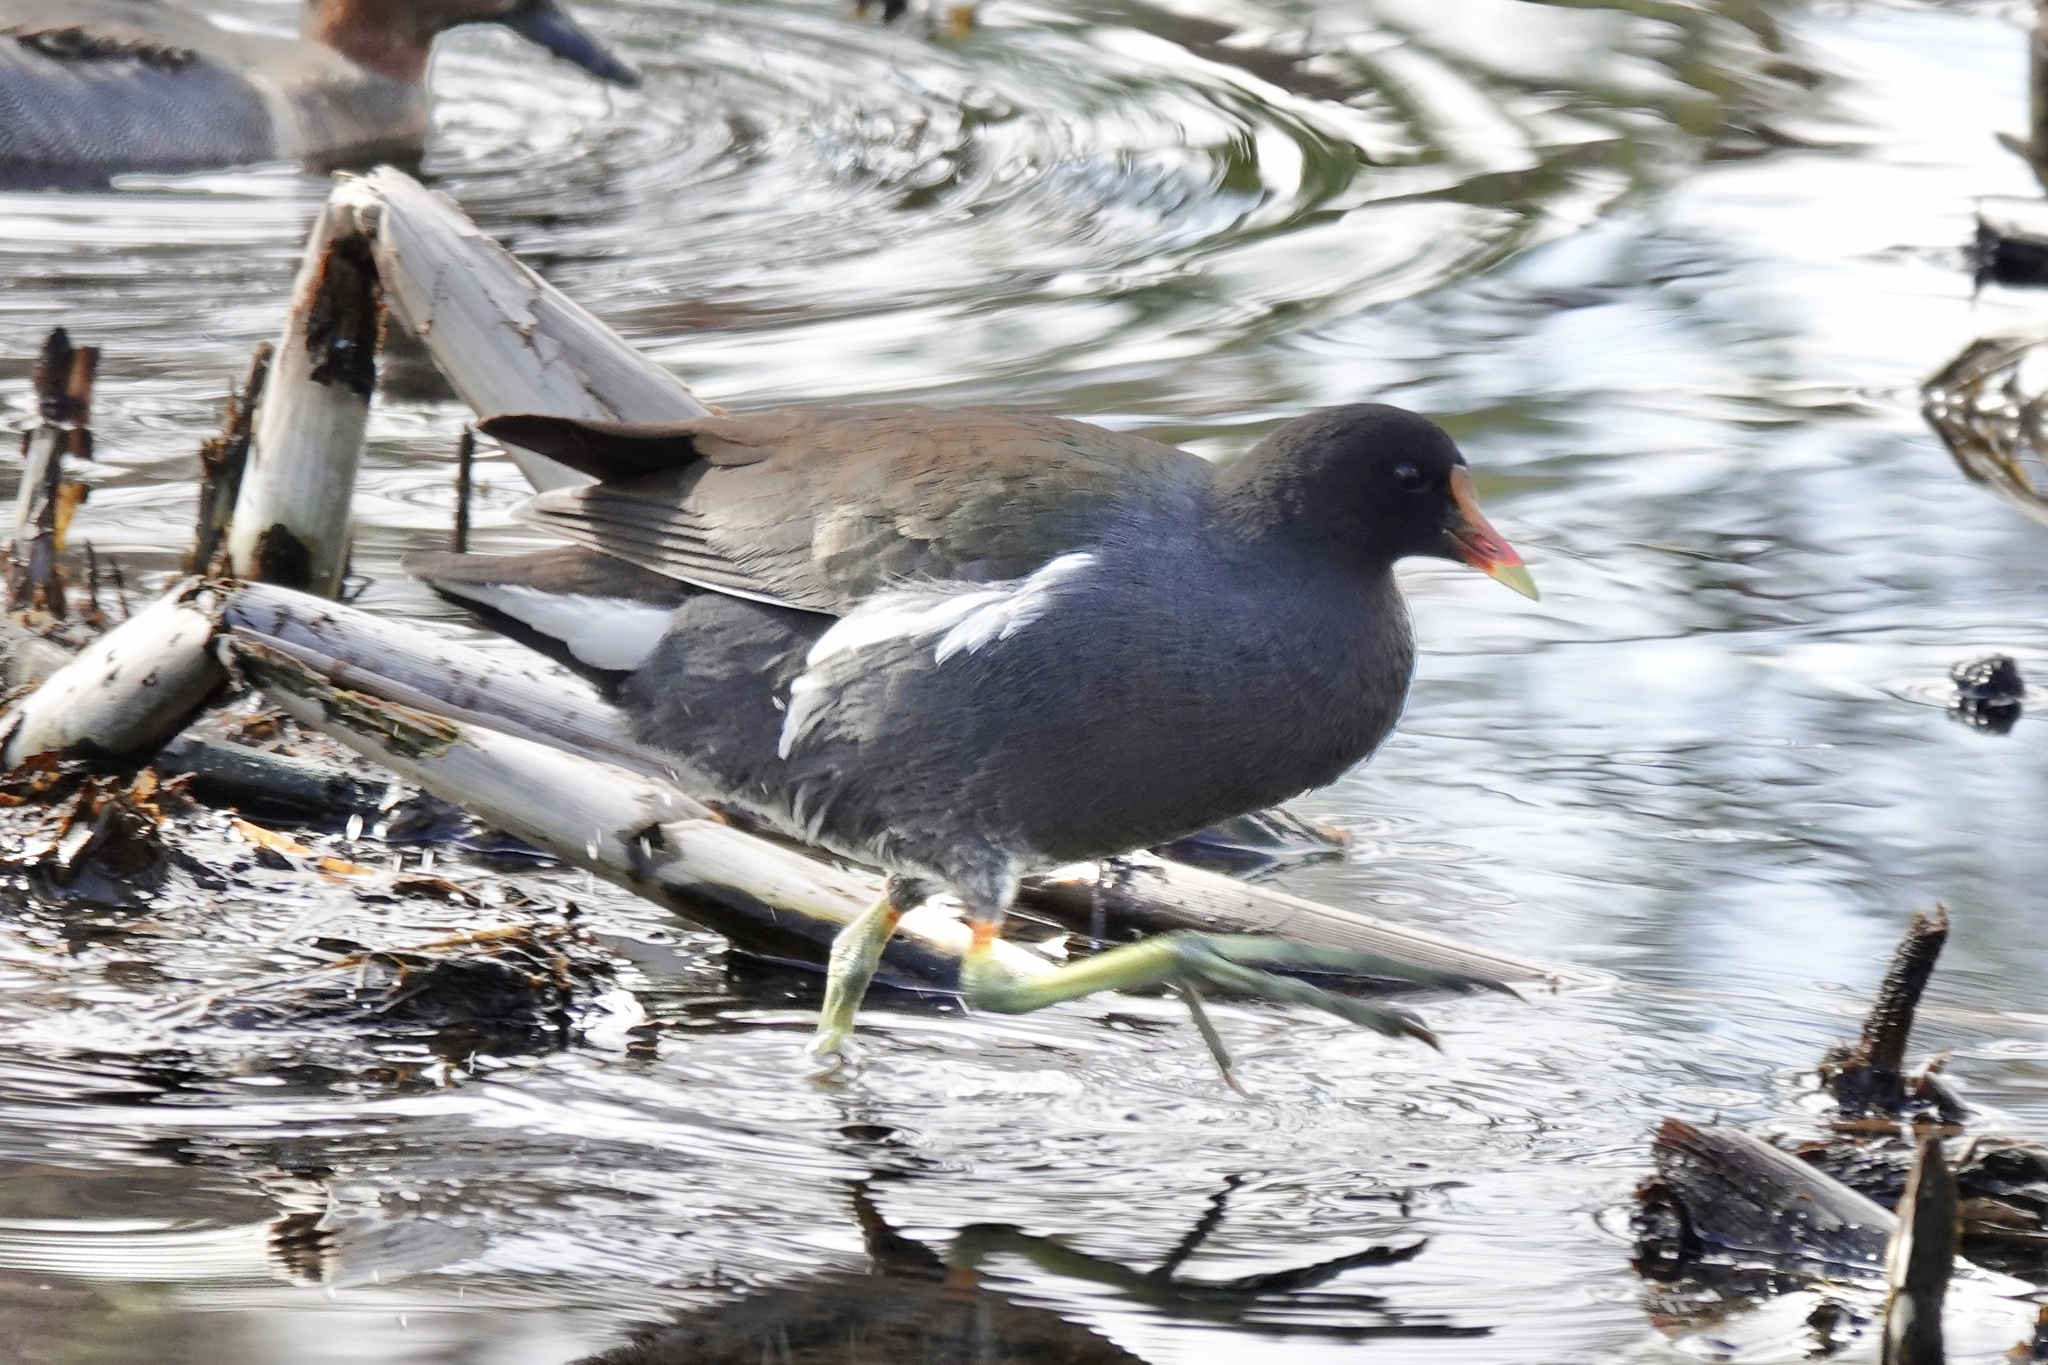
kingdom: Animalia
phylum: Chordata
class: Aves
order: Gruiformes
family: Rallidae
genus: Gallinula
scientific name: Gallinula chloropus
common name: Common moorhen
